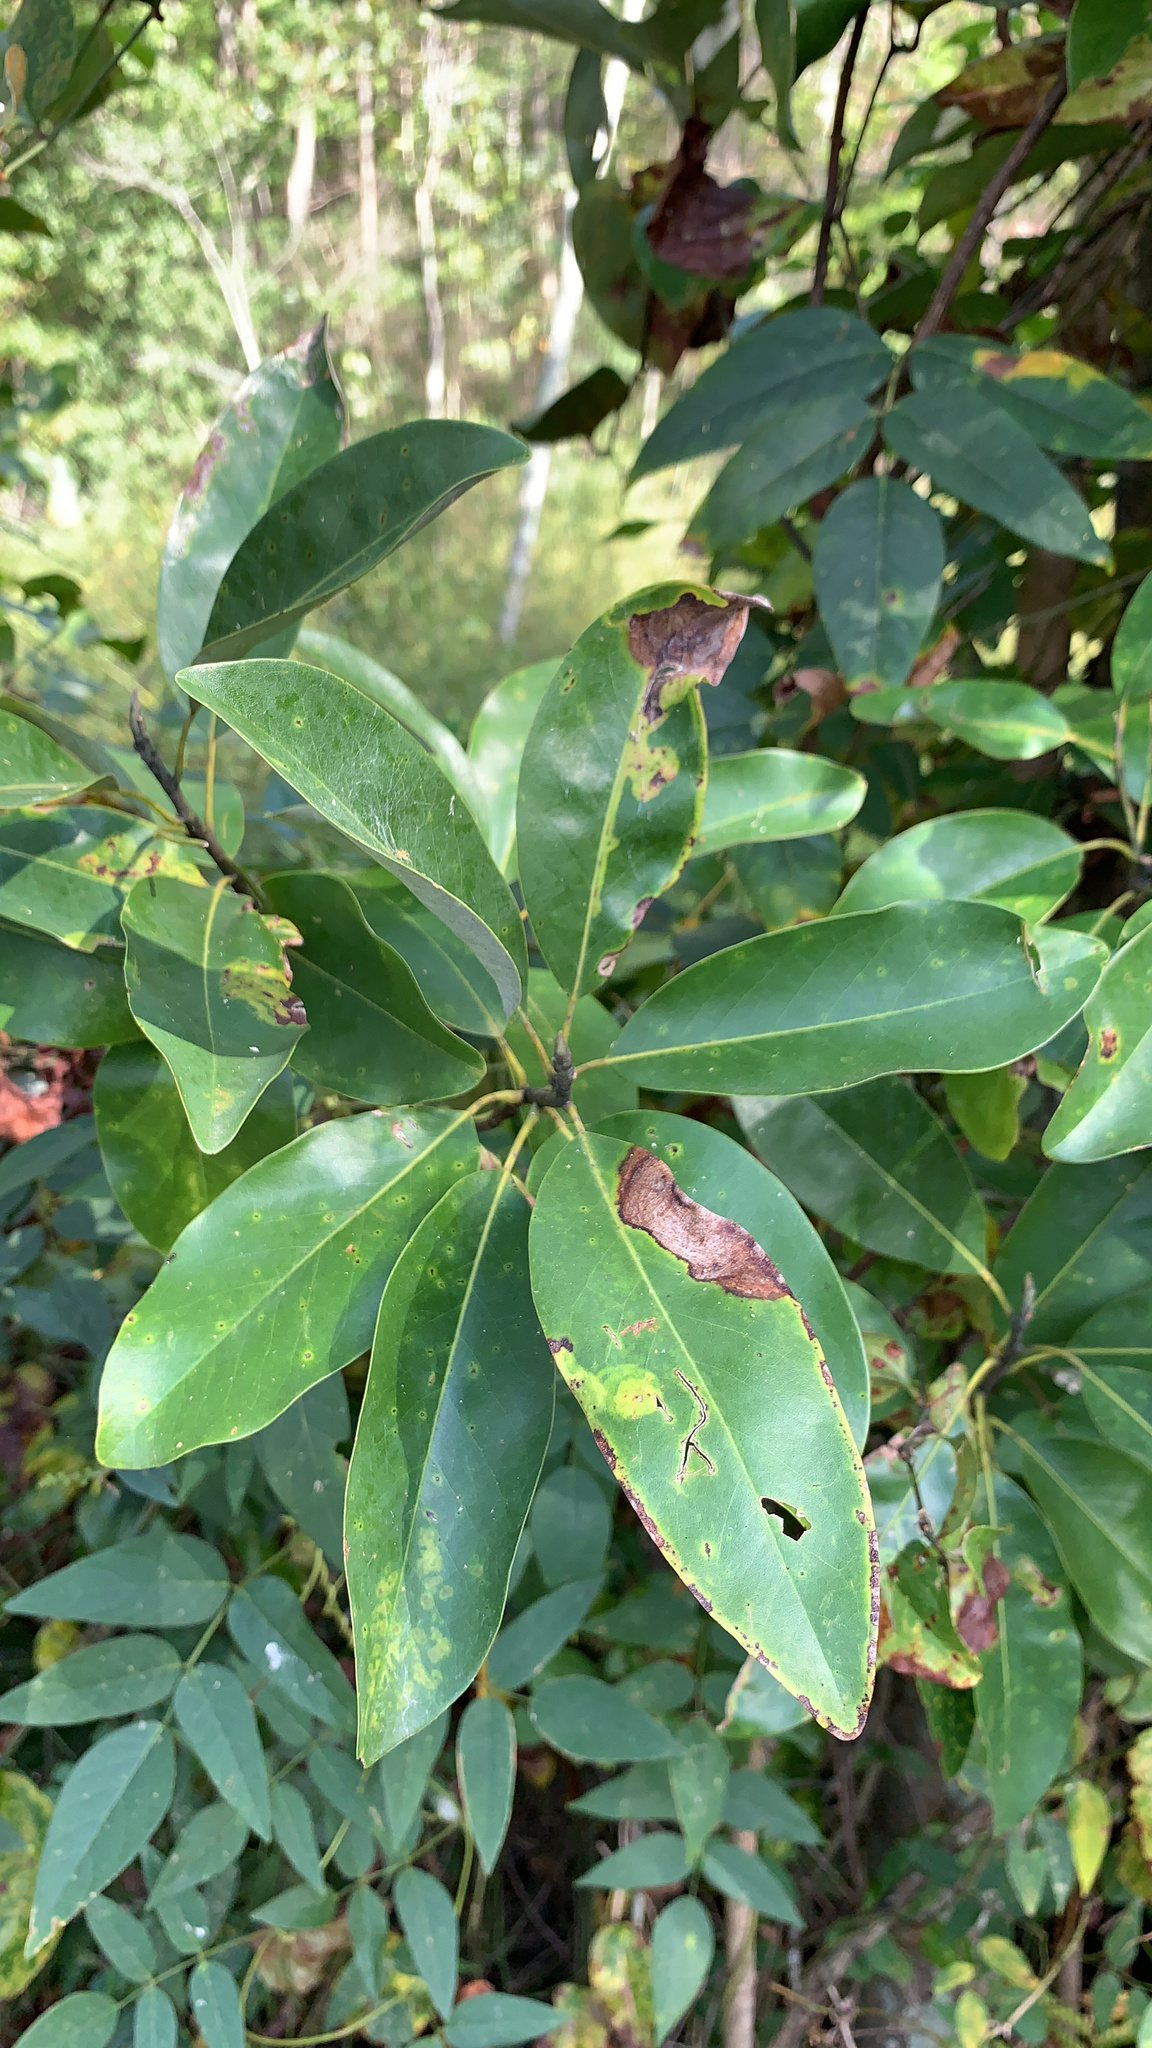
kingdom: Plantae
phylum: Tracheophyta
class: Magnoliopsida
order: Magnoliales
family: Magnoliaceae
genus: Magnolia
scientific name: Magnolia virginiana
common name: Swamp bay
